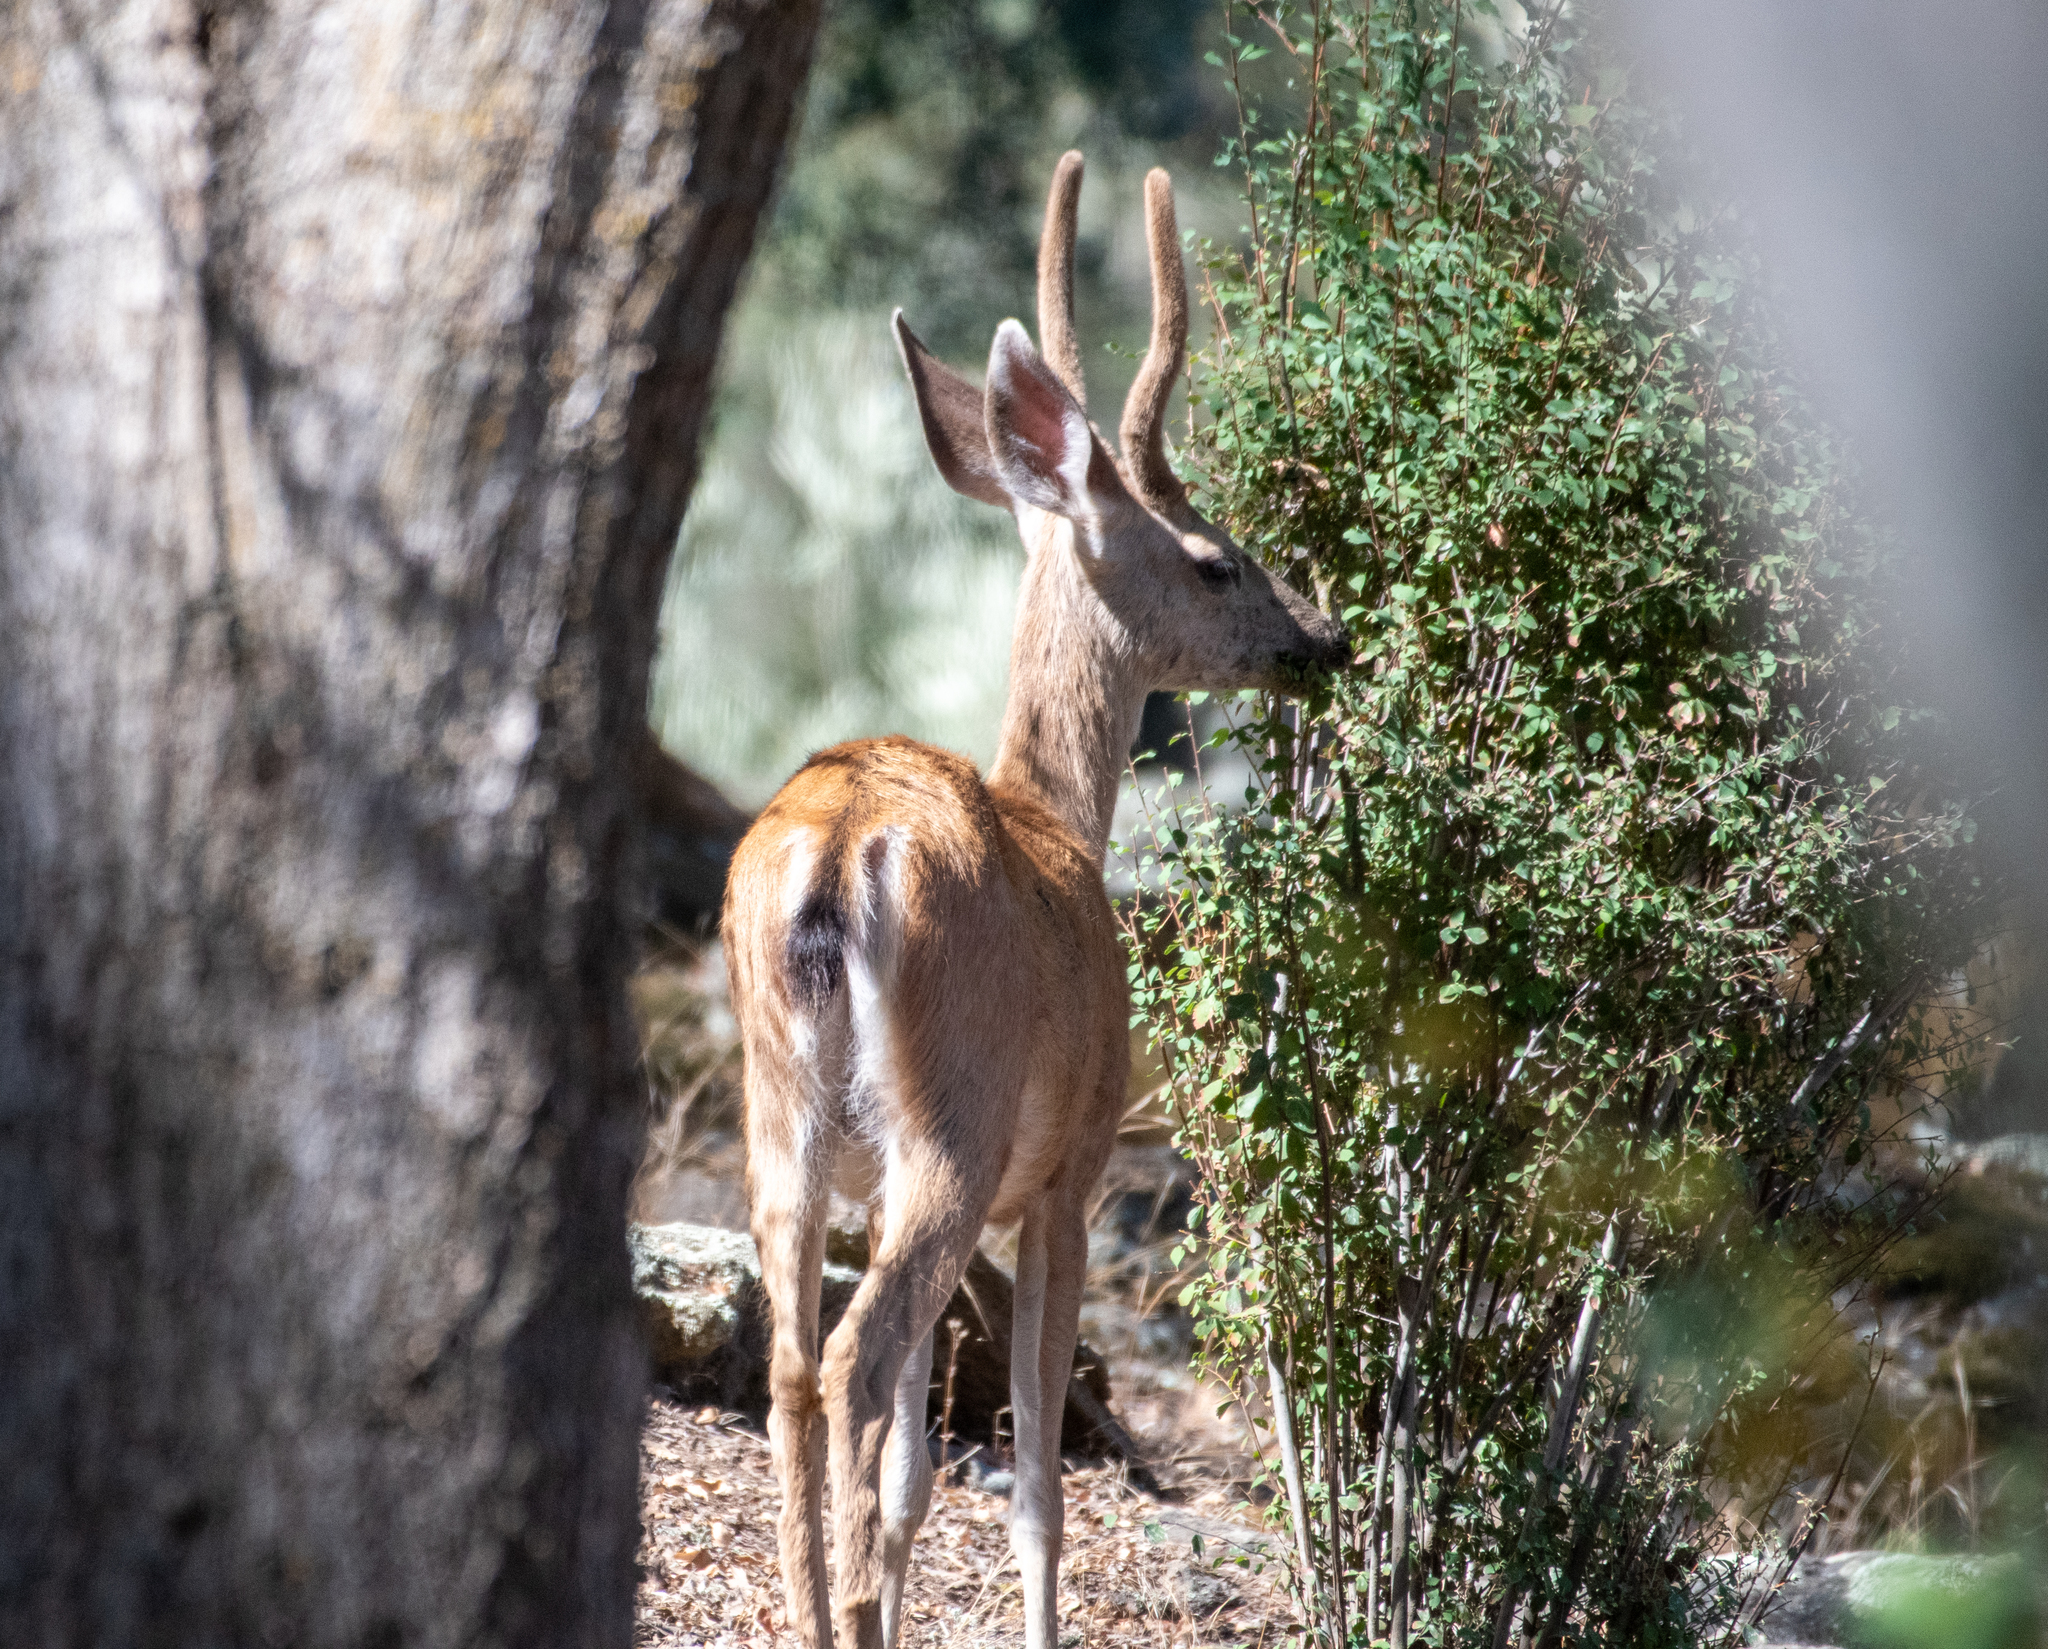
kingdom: Animalia
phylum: Chordata
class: Mammalia
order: Artiodactyla
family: Cervidae
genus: Odocoileus
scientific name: Odocoileus hemionus
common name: Mule deer
